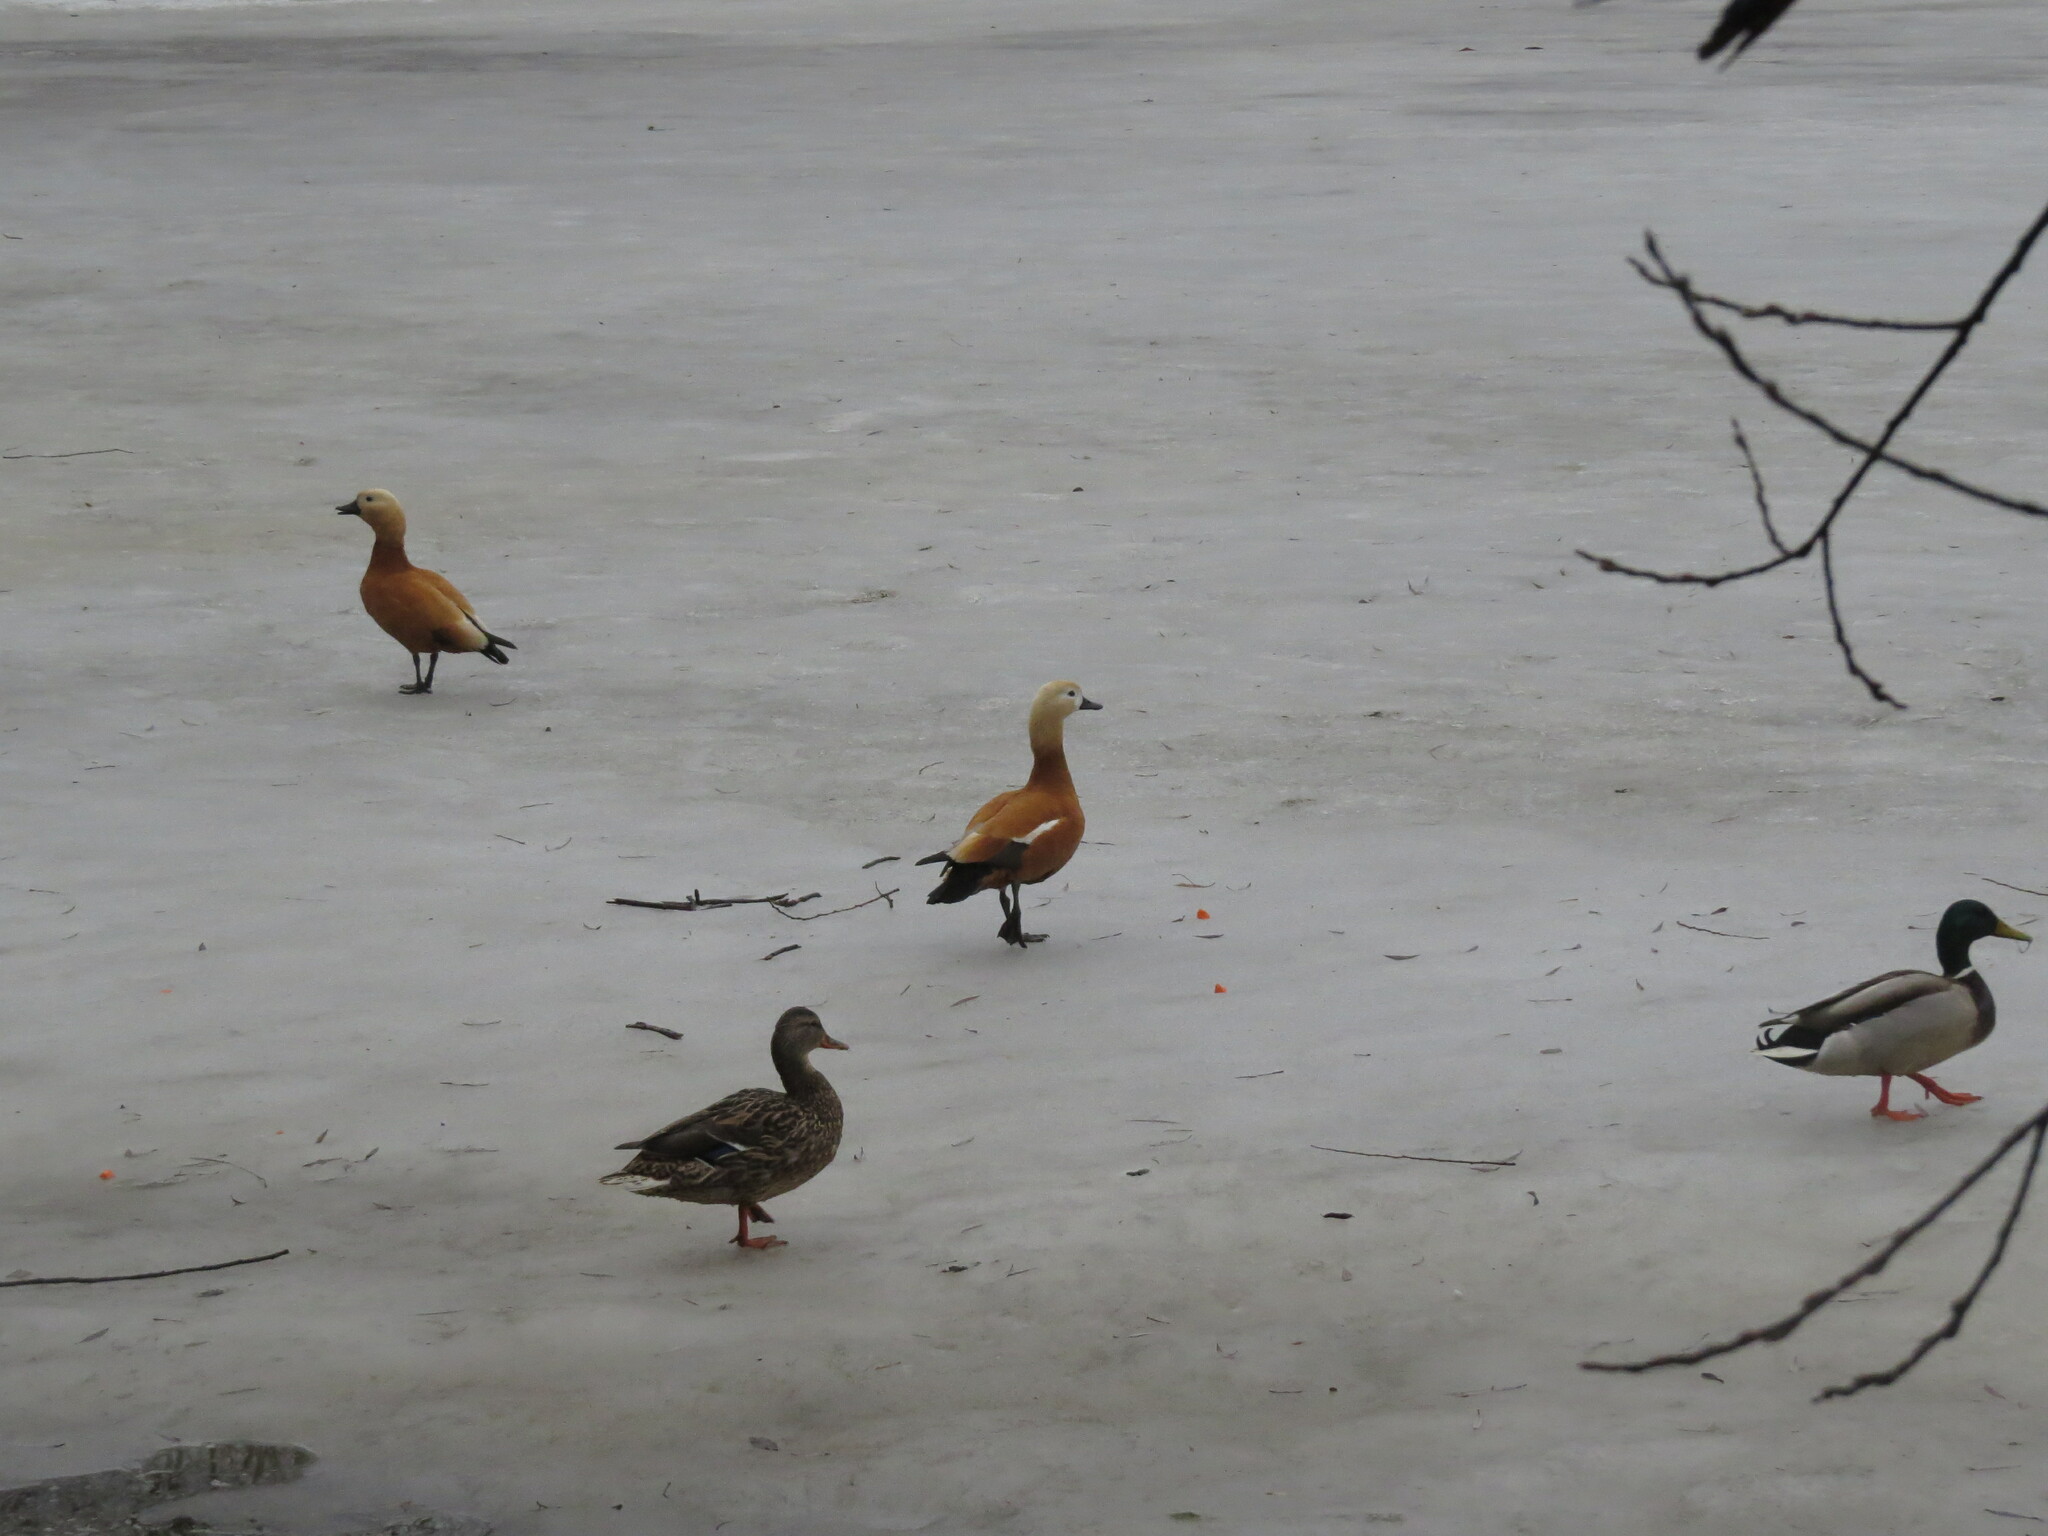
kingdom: Animalia
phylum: Chordata
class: Aves
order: Anseriformes
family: Anatidae
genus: Tadorna
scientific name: Tadorna ferruginea
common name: Ruddy shelduck
